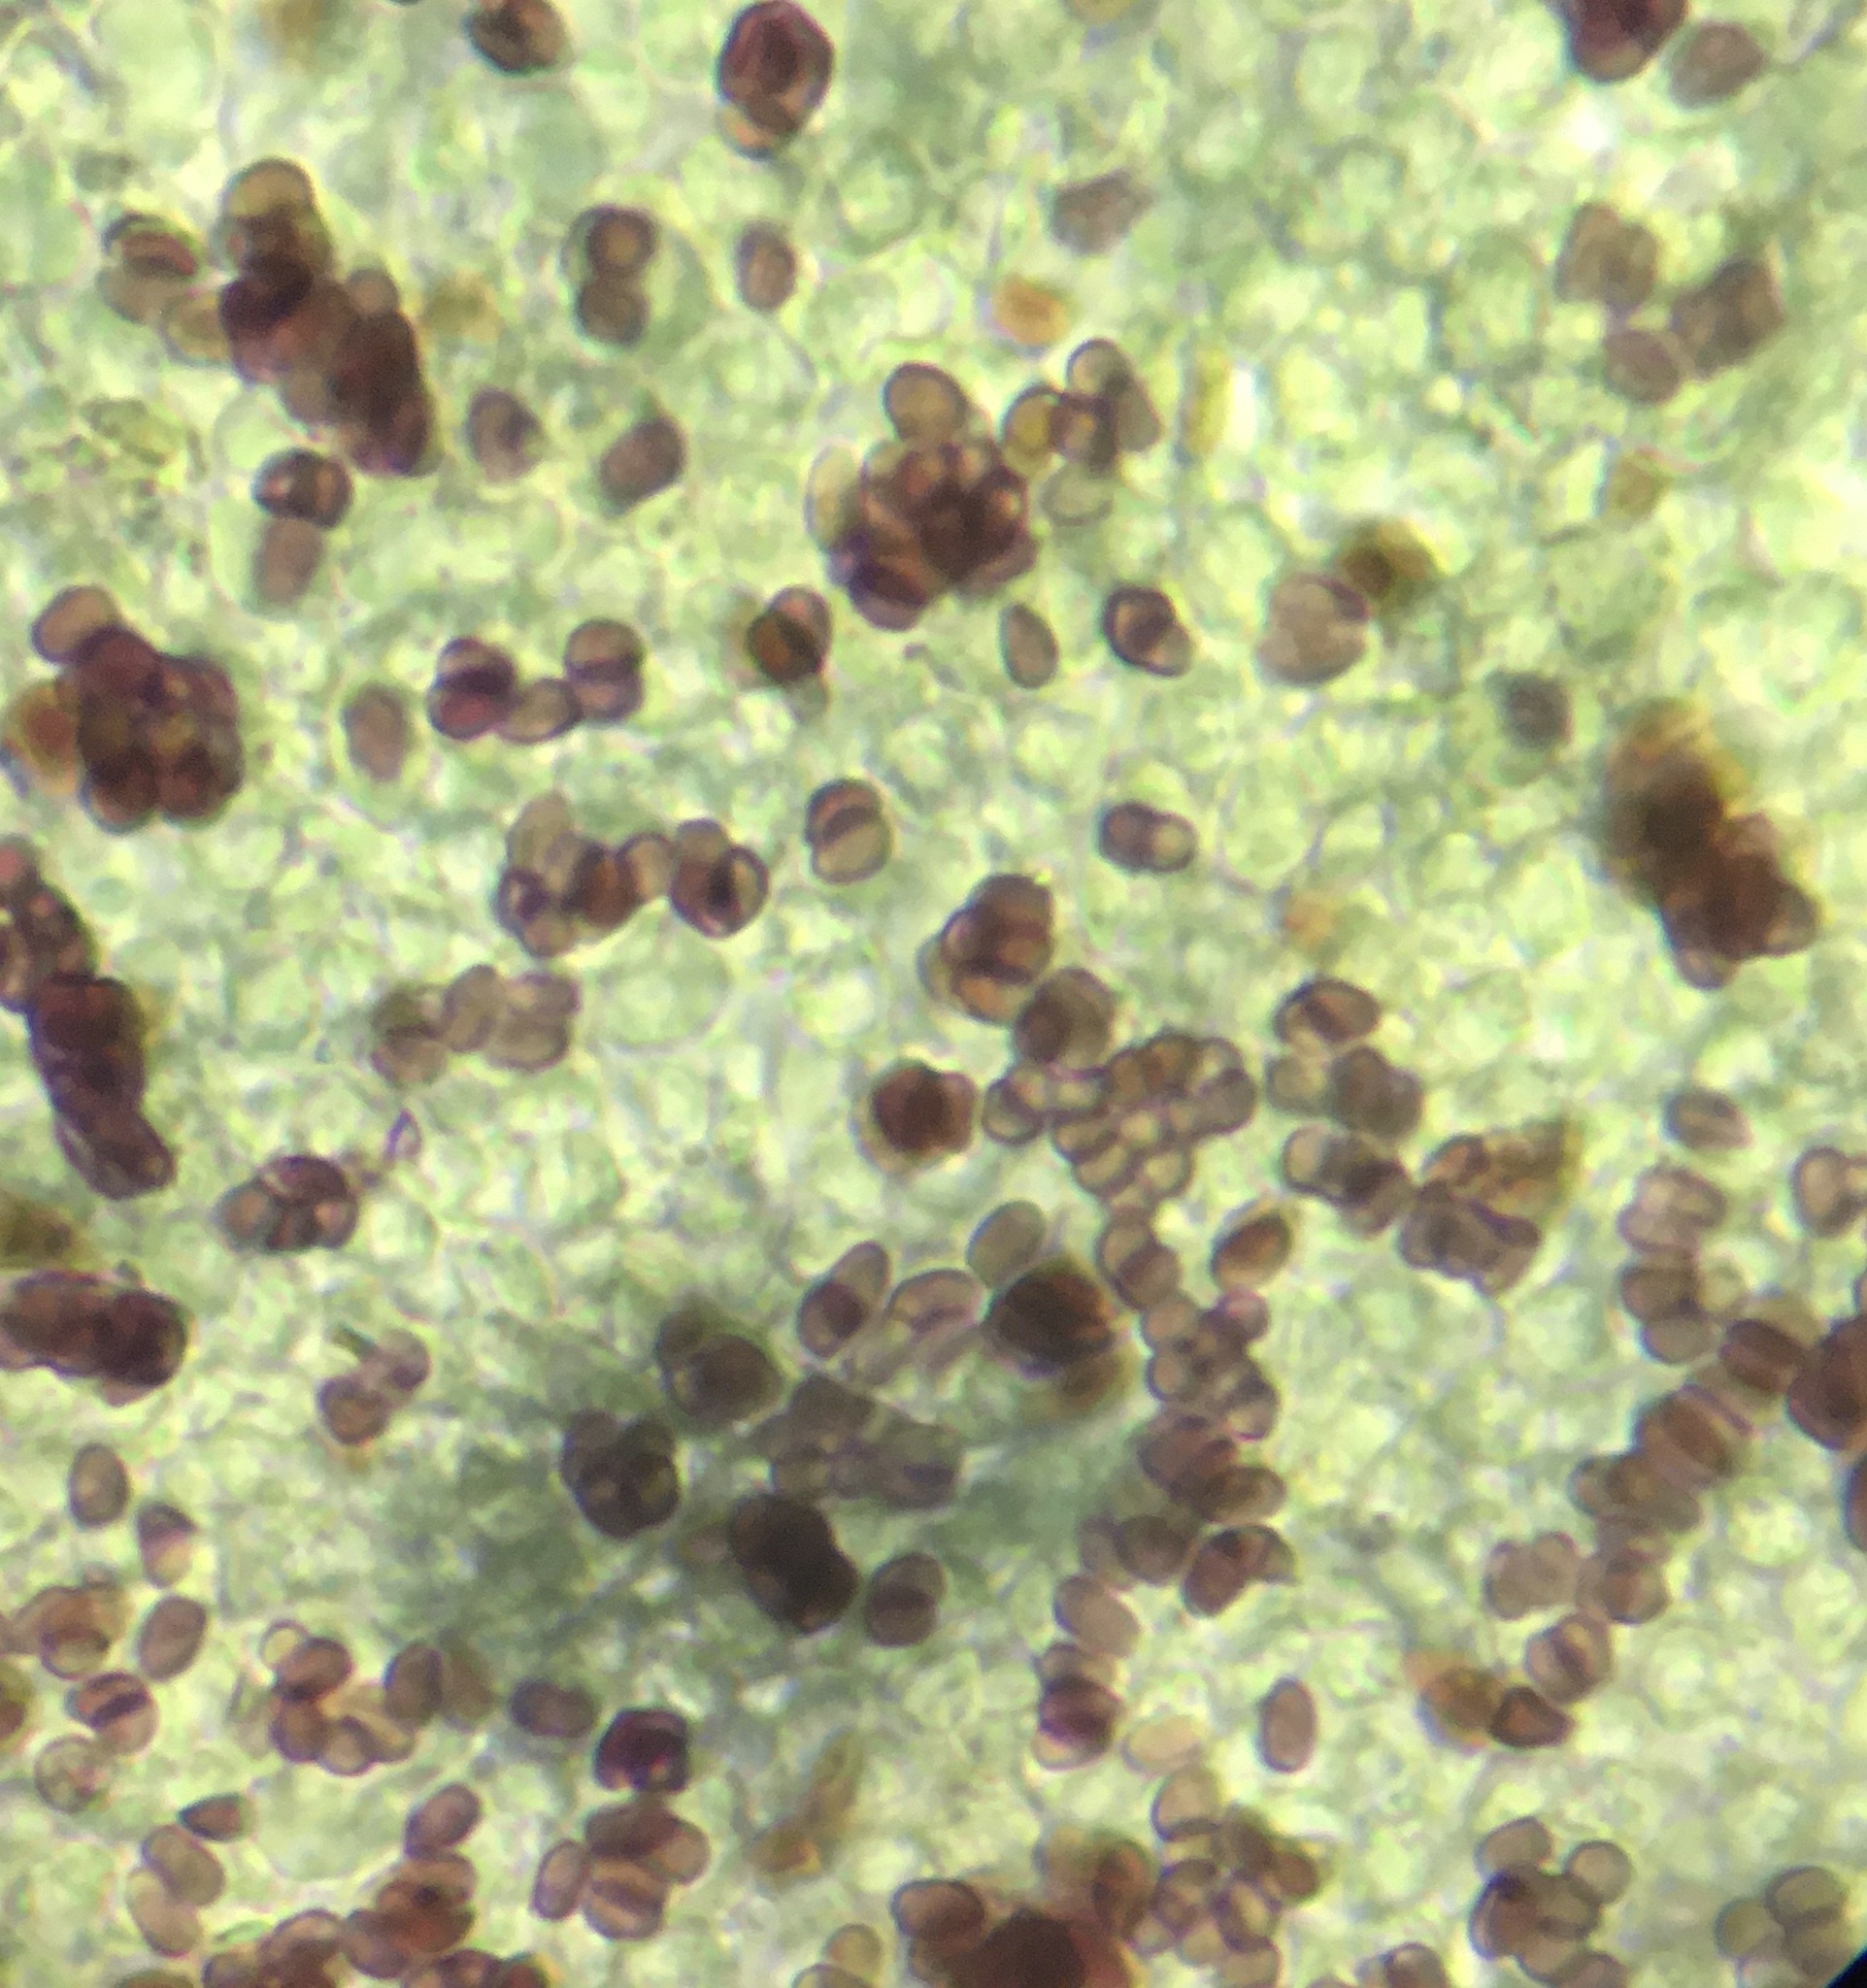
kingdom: Fungi
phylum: Basidiomycota
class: Agaricomycetes
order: Agaricales
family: Agaricaceae
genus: Lepiota
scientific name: Lepiota asperula
